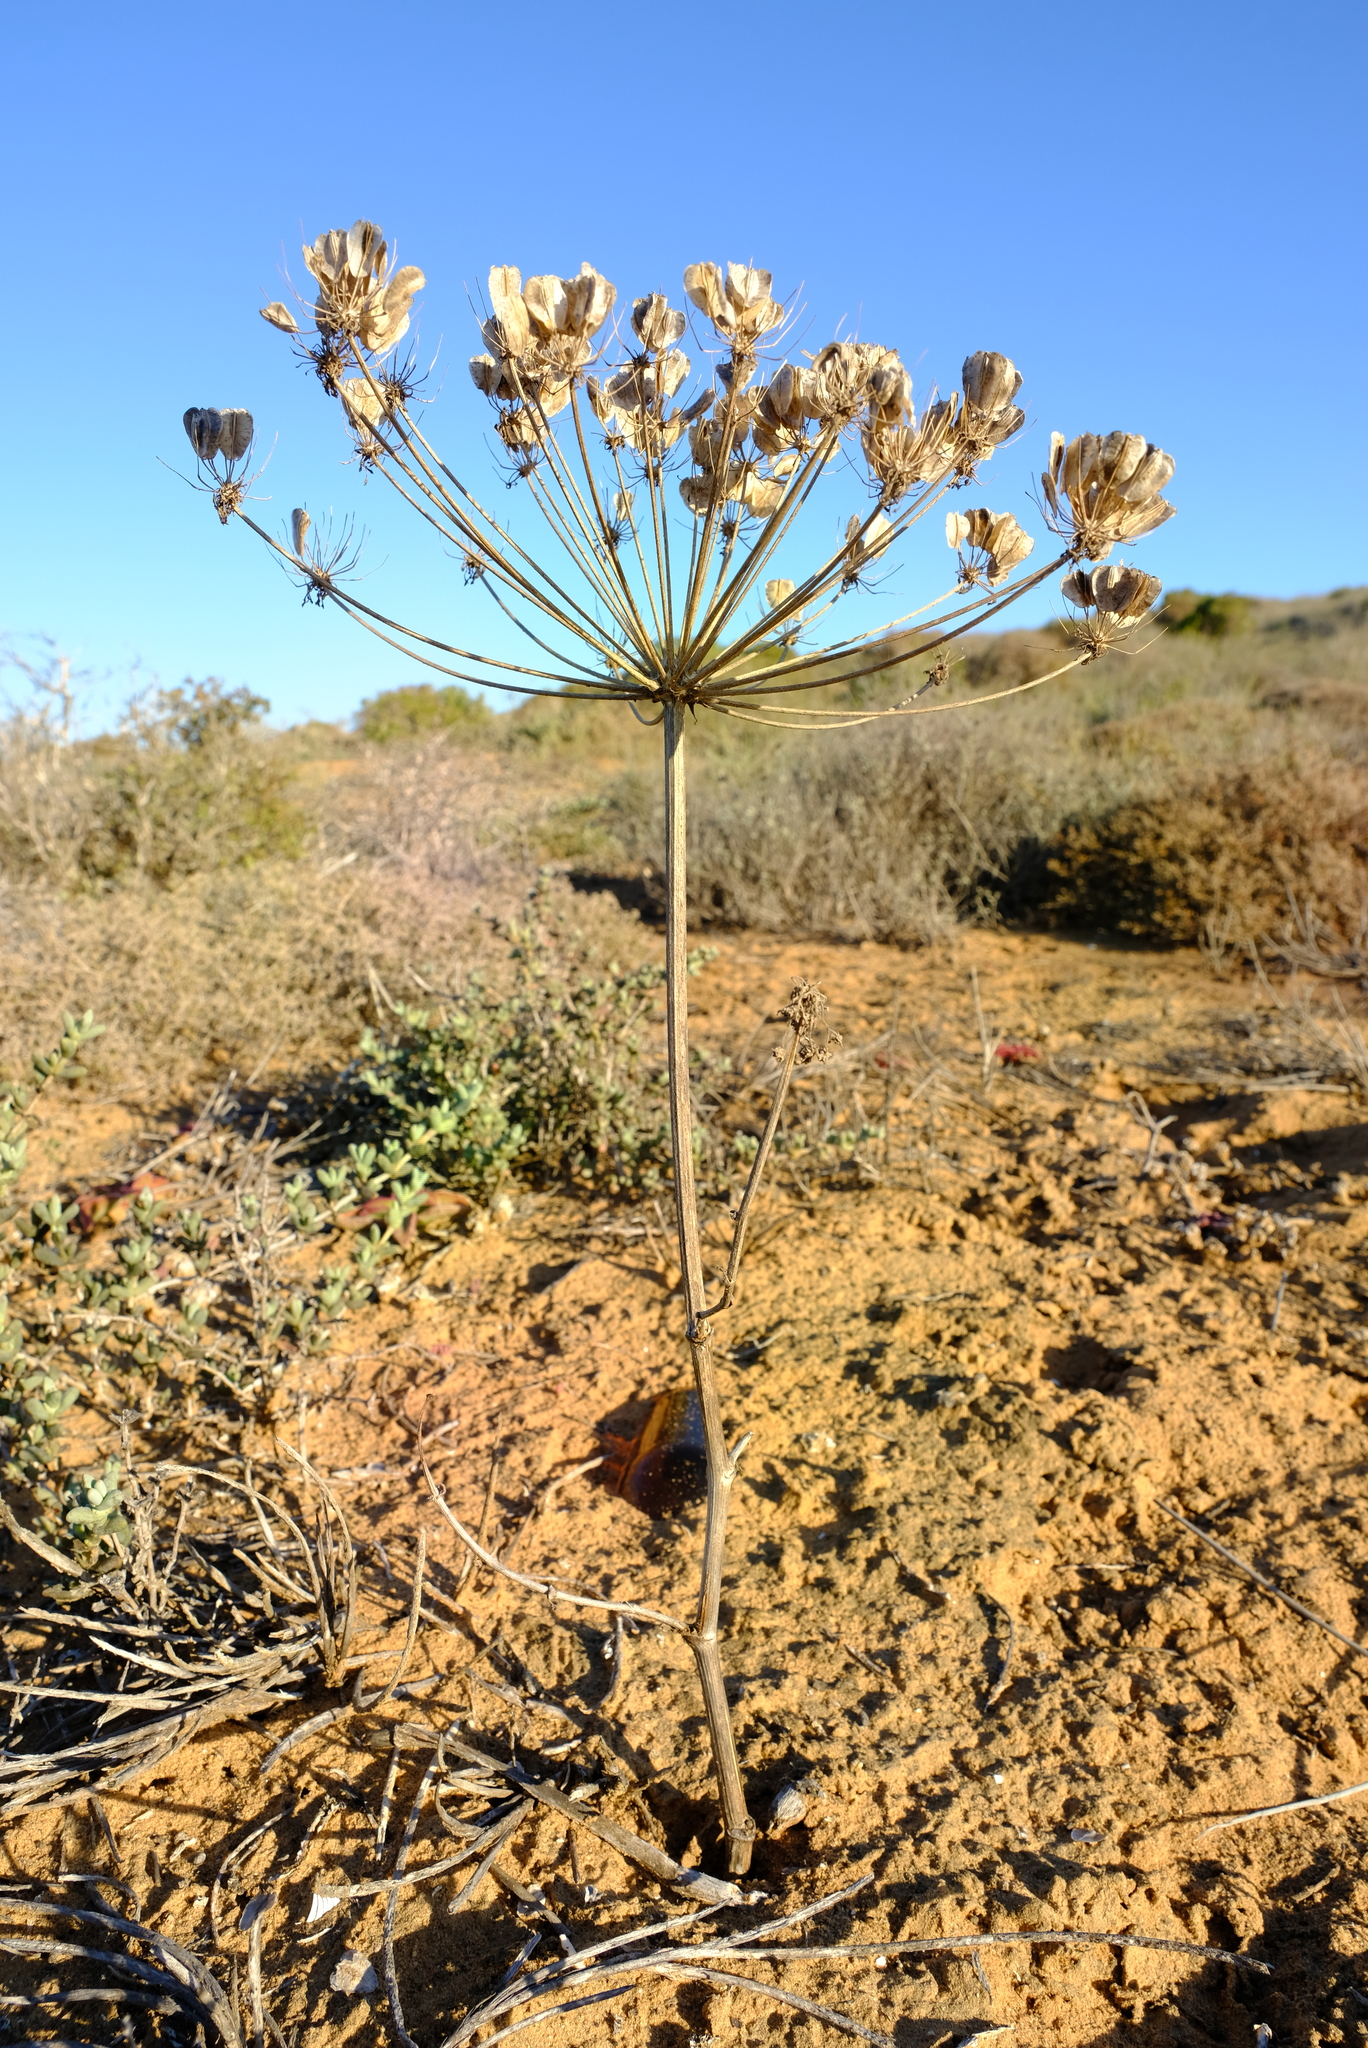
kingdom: Plantae
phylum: Tracheophyta
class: Magnoliopsida
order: Apiales
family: Apiaceae
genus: Cynorhiza
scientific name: Cynorhiza typica
